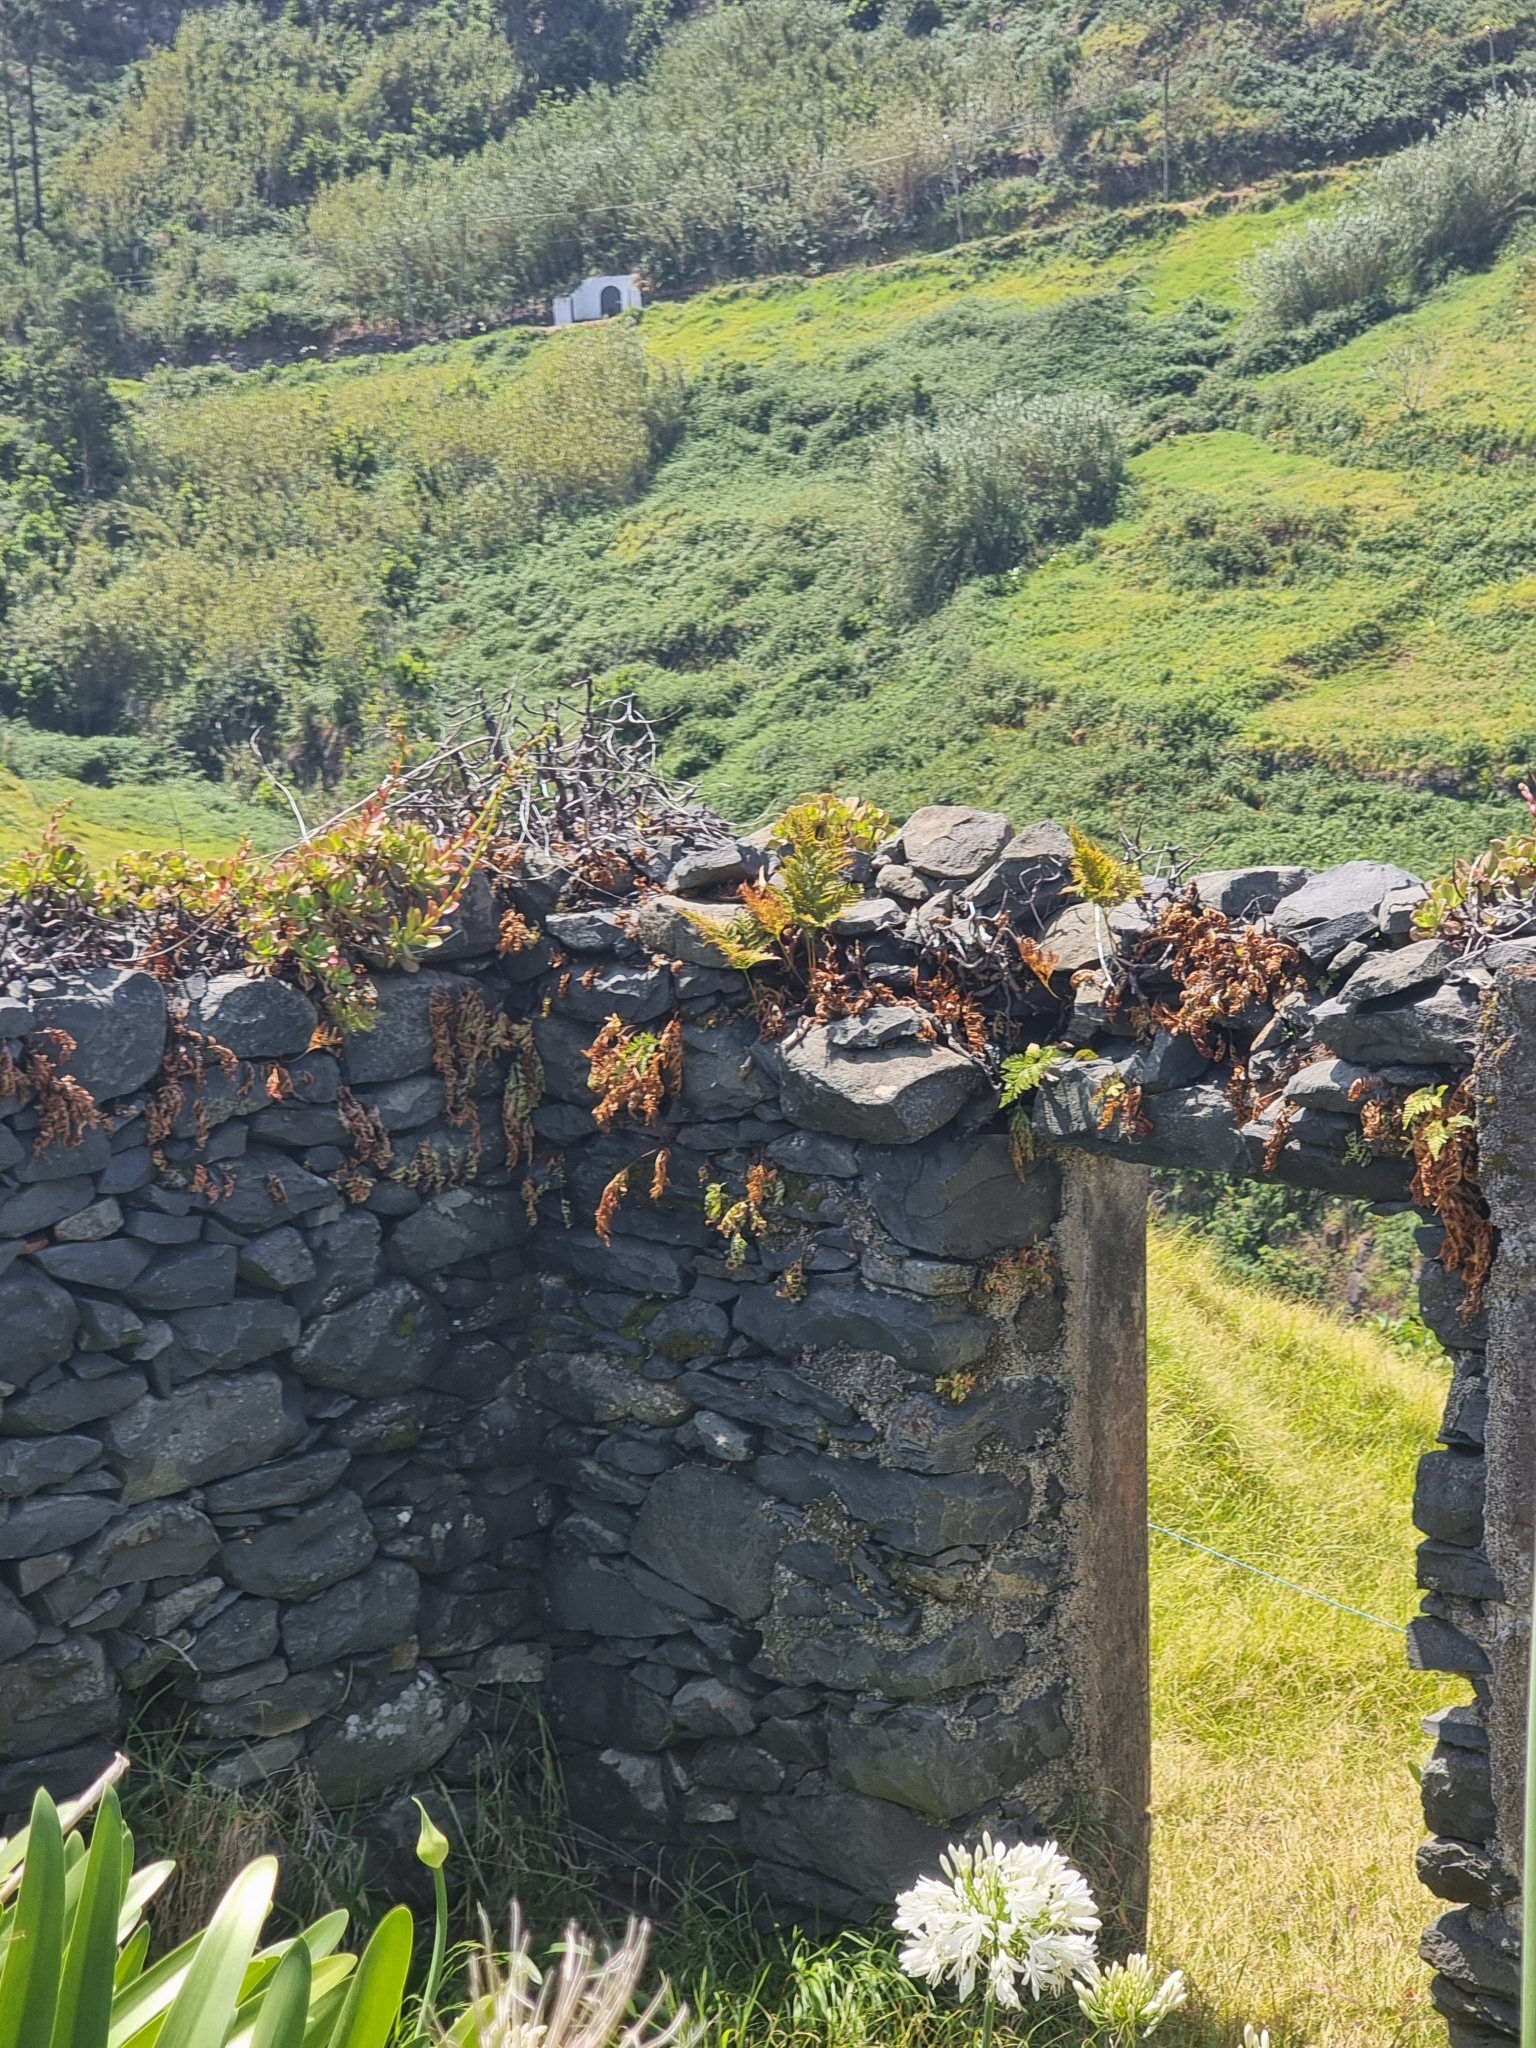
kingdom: Plantae
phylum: Tracheophyta
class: Polypodiopsida
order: Polypodiales
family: Davalliaceae
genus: Davallia
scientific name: Davallia canariensis
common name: Hare's-foot fern
